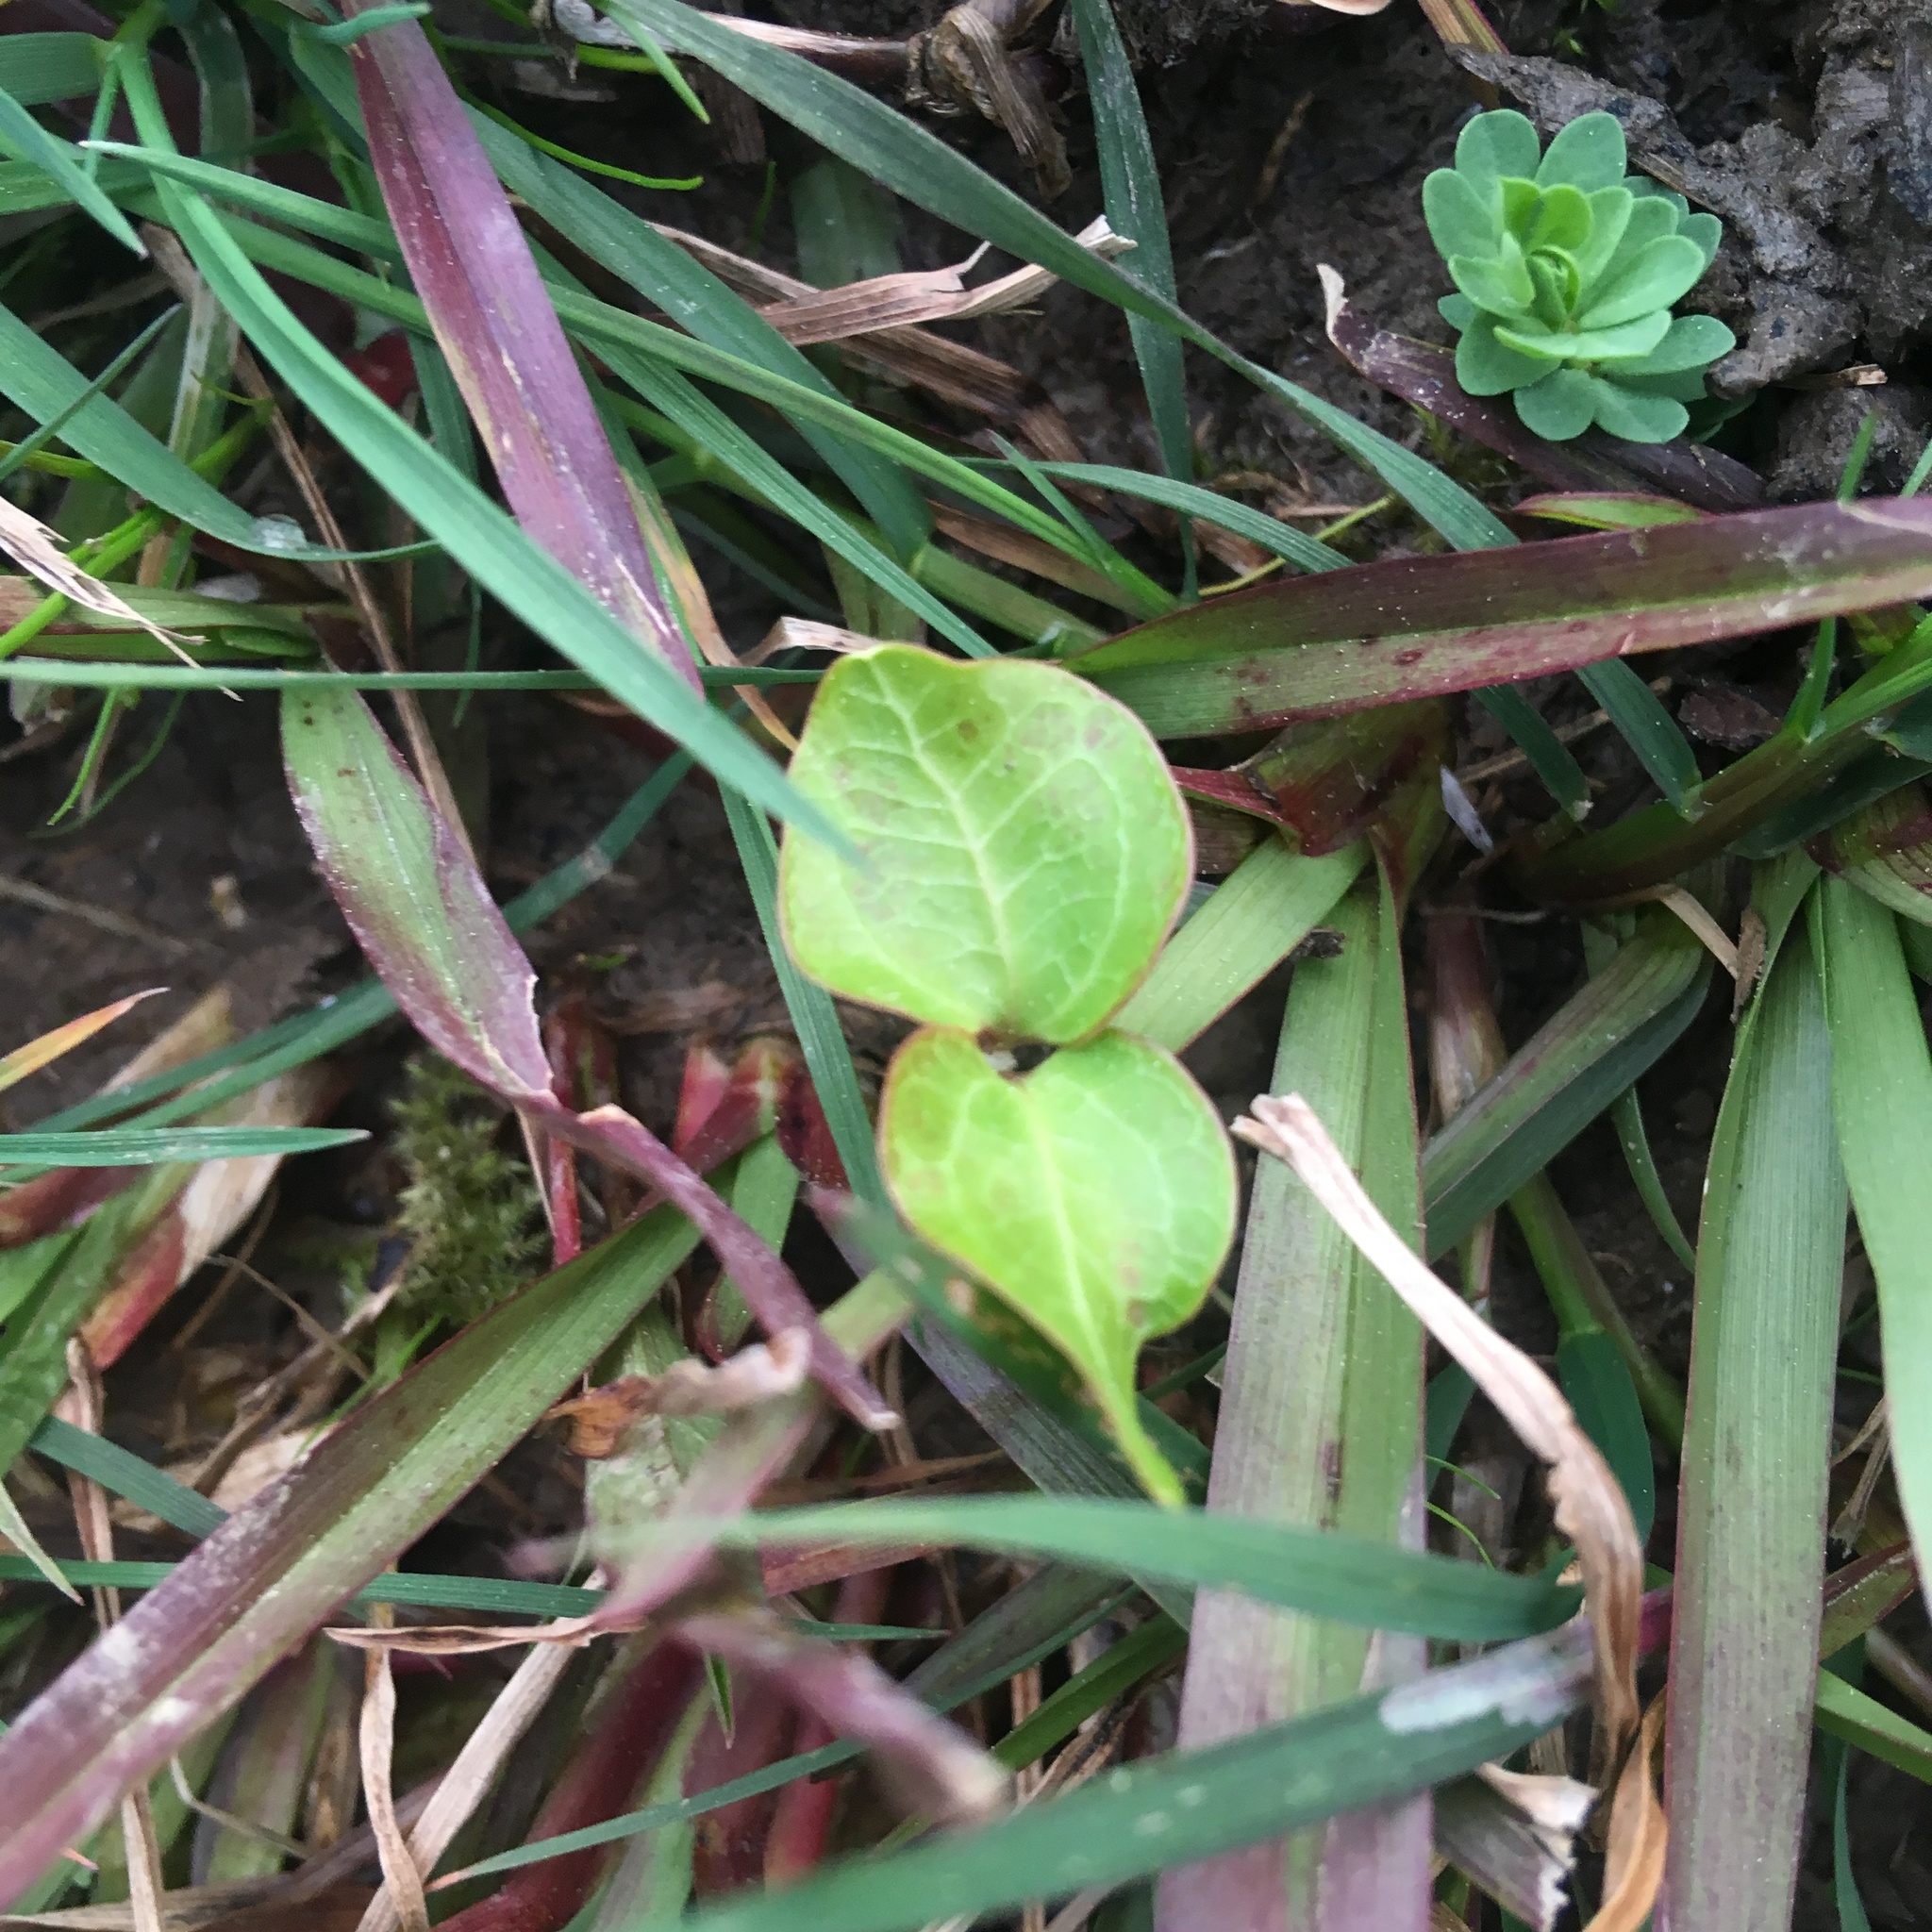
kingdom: Plantae
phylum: Tracheophyta
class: Magnoliopsida
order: Apiales
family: Araliaceae
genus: Hedera
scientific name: Hedera helix
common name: Ivy
